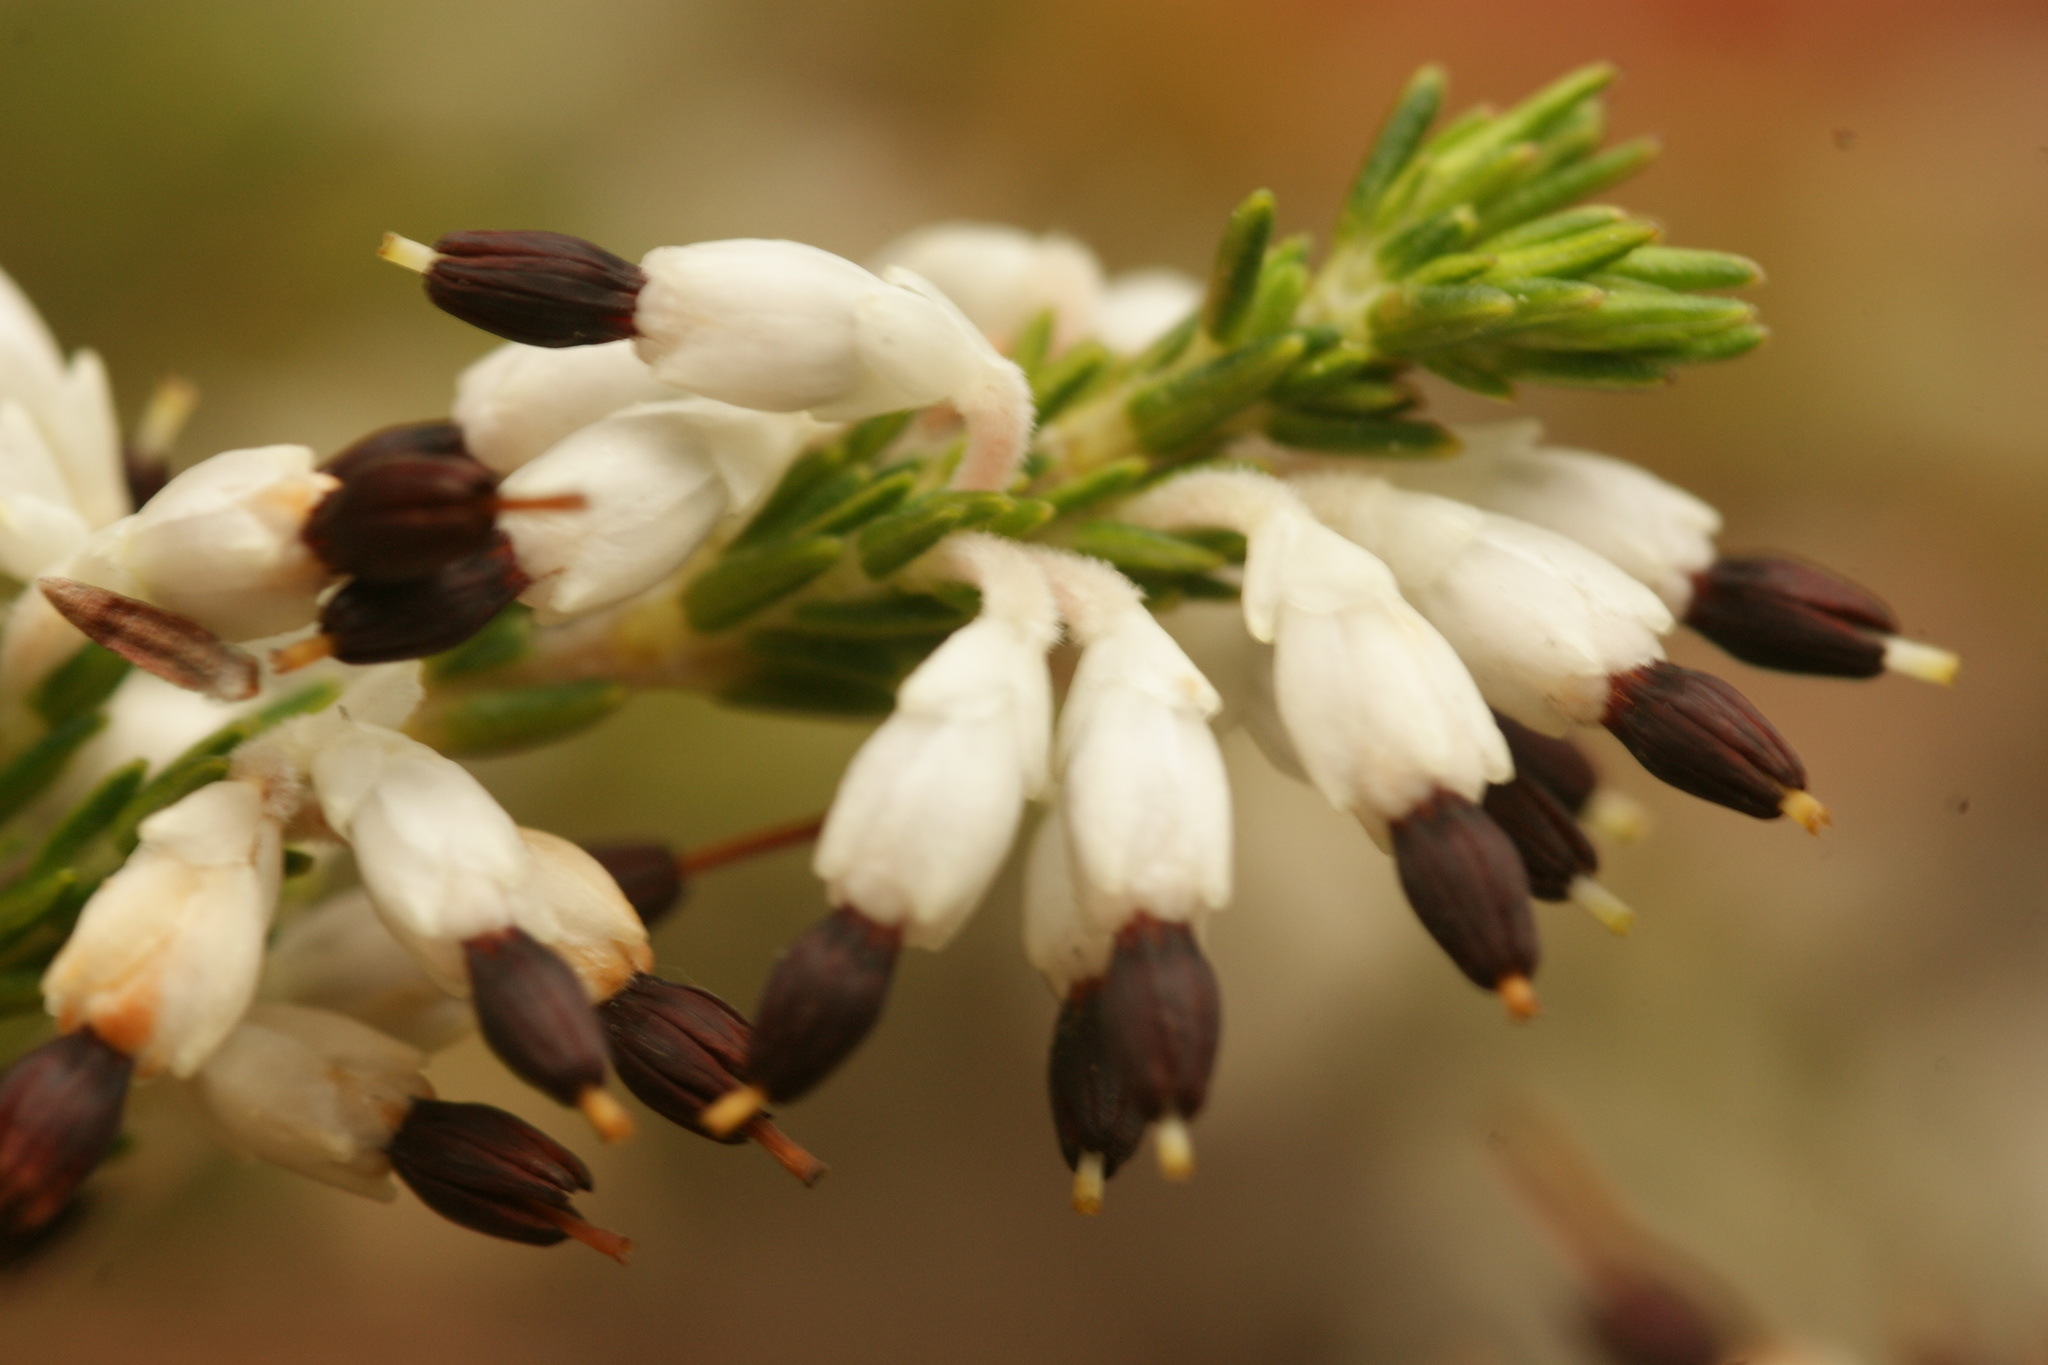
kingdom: Plantae
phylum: Tracheophyta
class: Magnoliopsida
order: Ericales
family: Ericaceae
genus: Erica
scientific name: Erica imbricata
